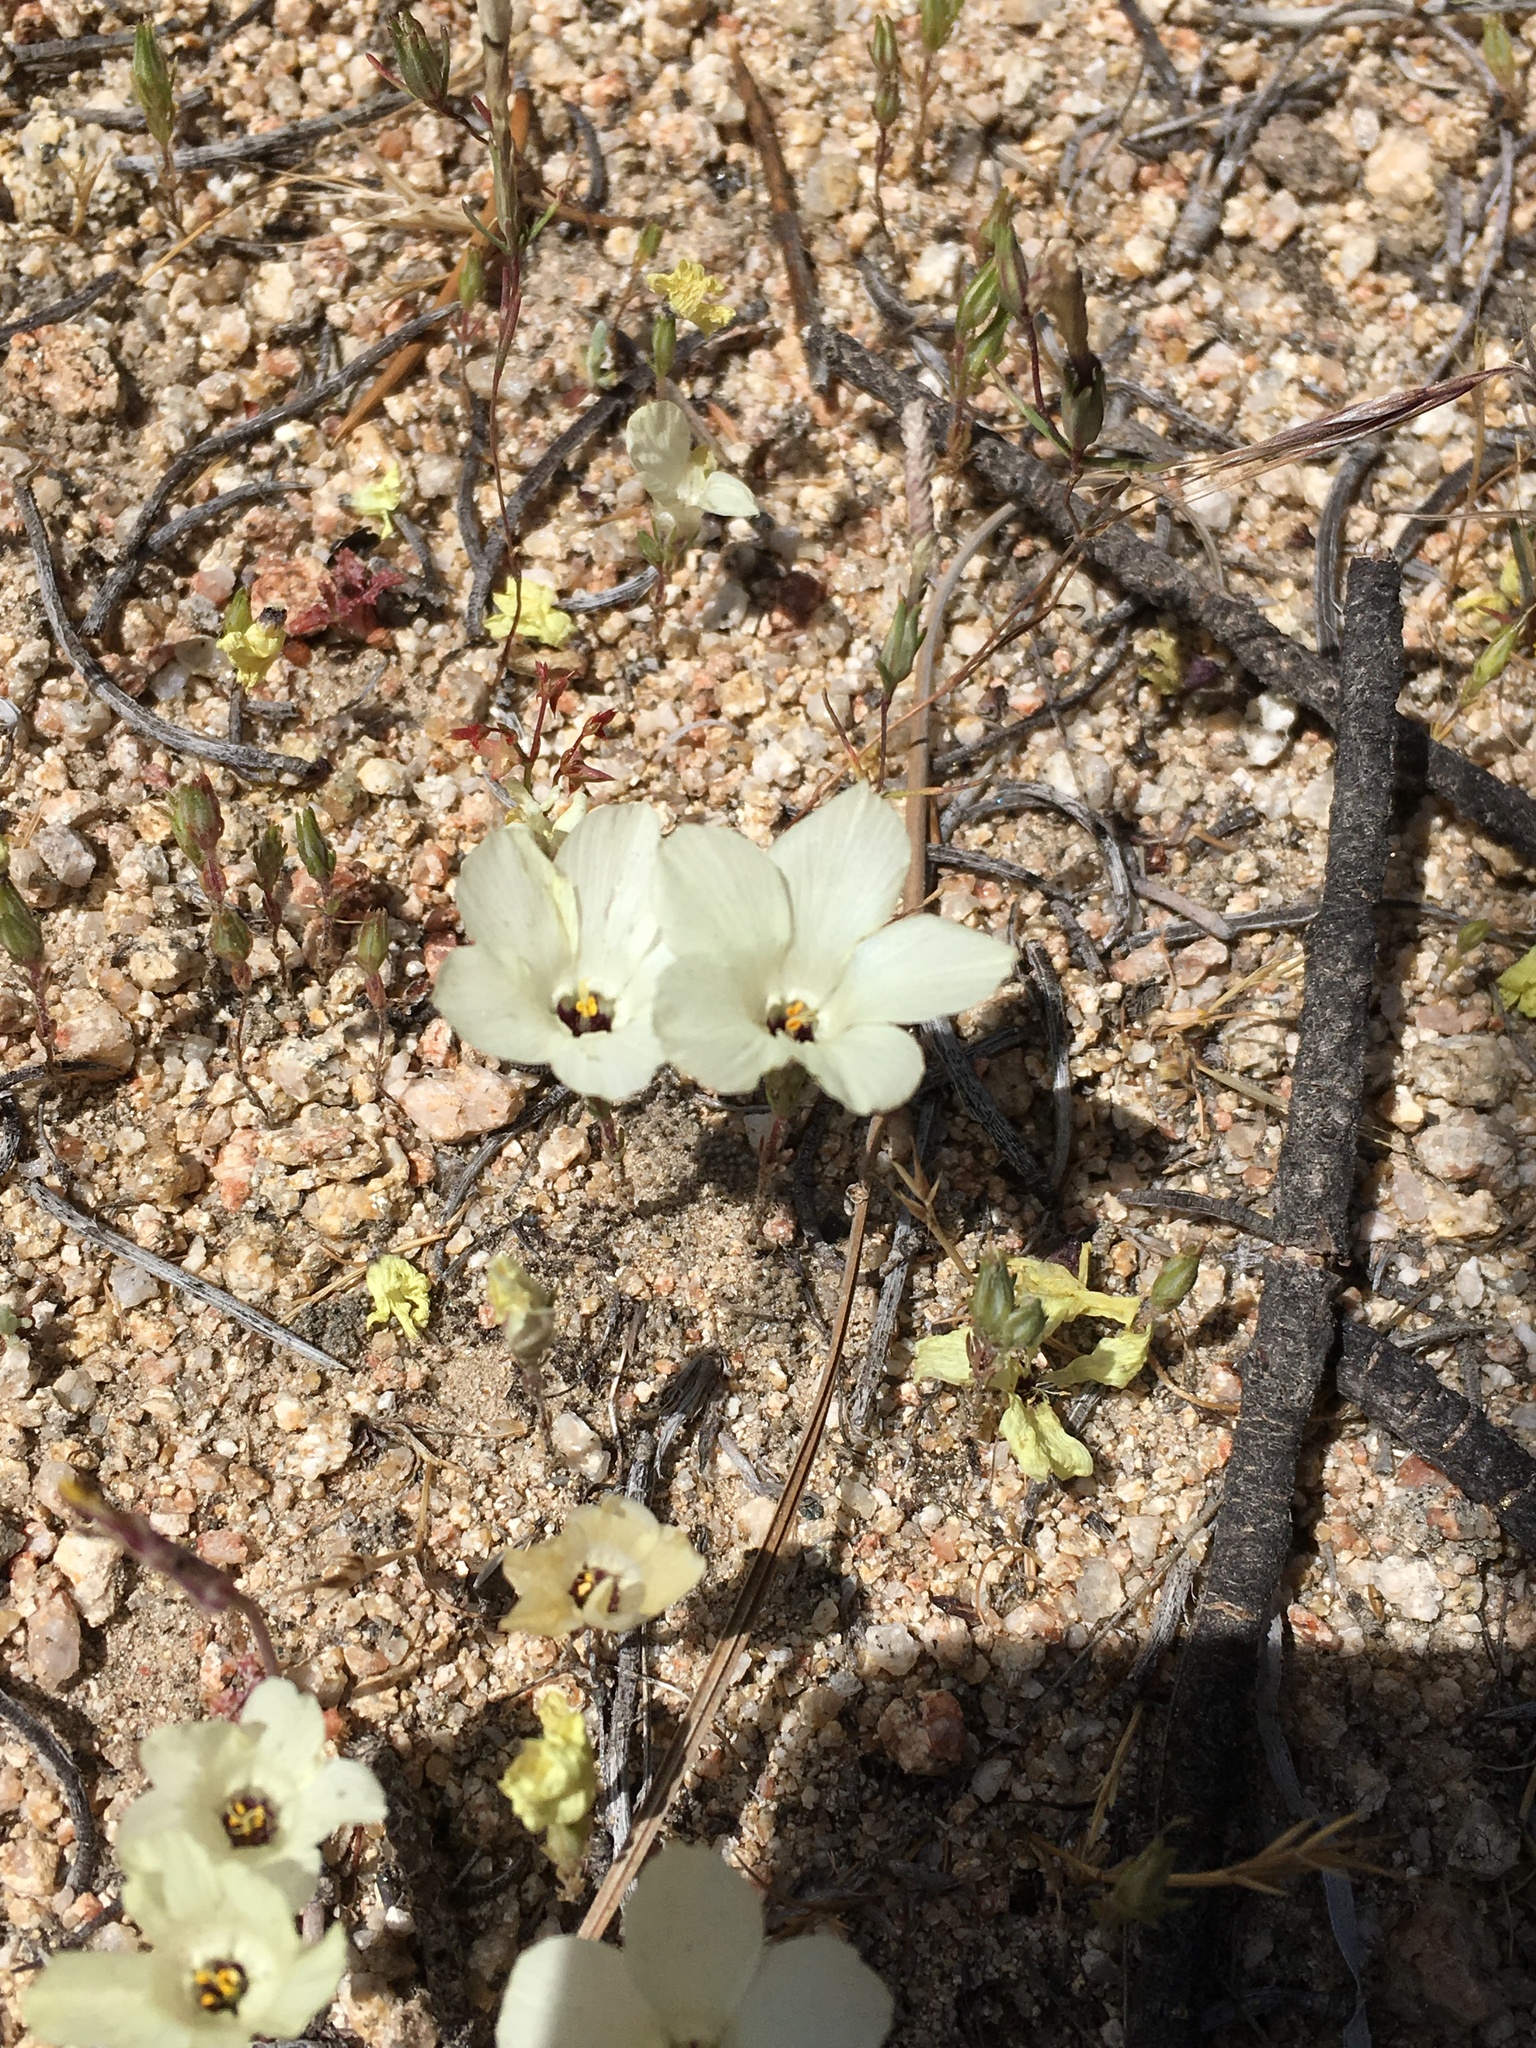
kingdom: Plantae
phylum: Tracheophyta
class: Magnoliopsida
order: Ericales
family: Polemoniaceae
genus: Linanthus
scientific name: Linanthus parryae
